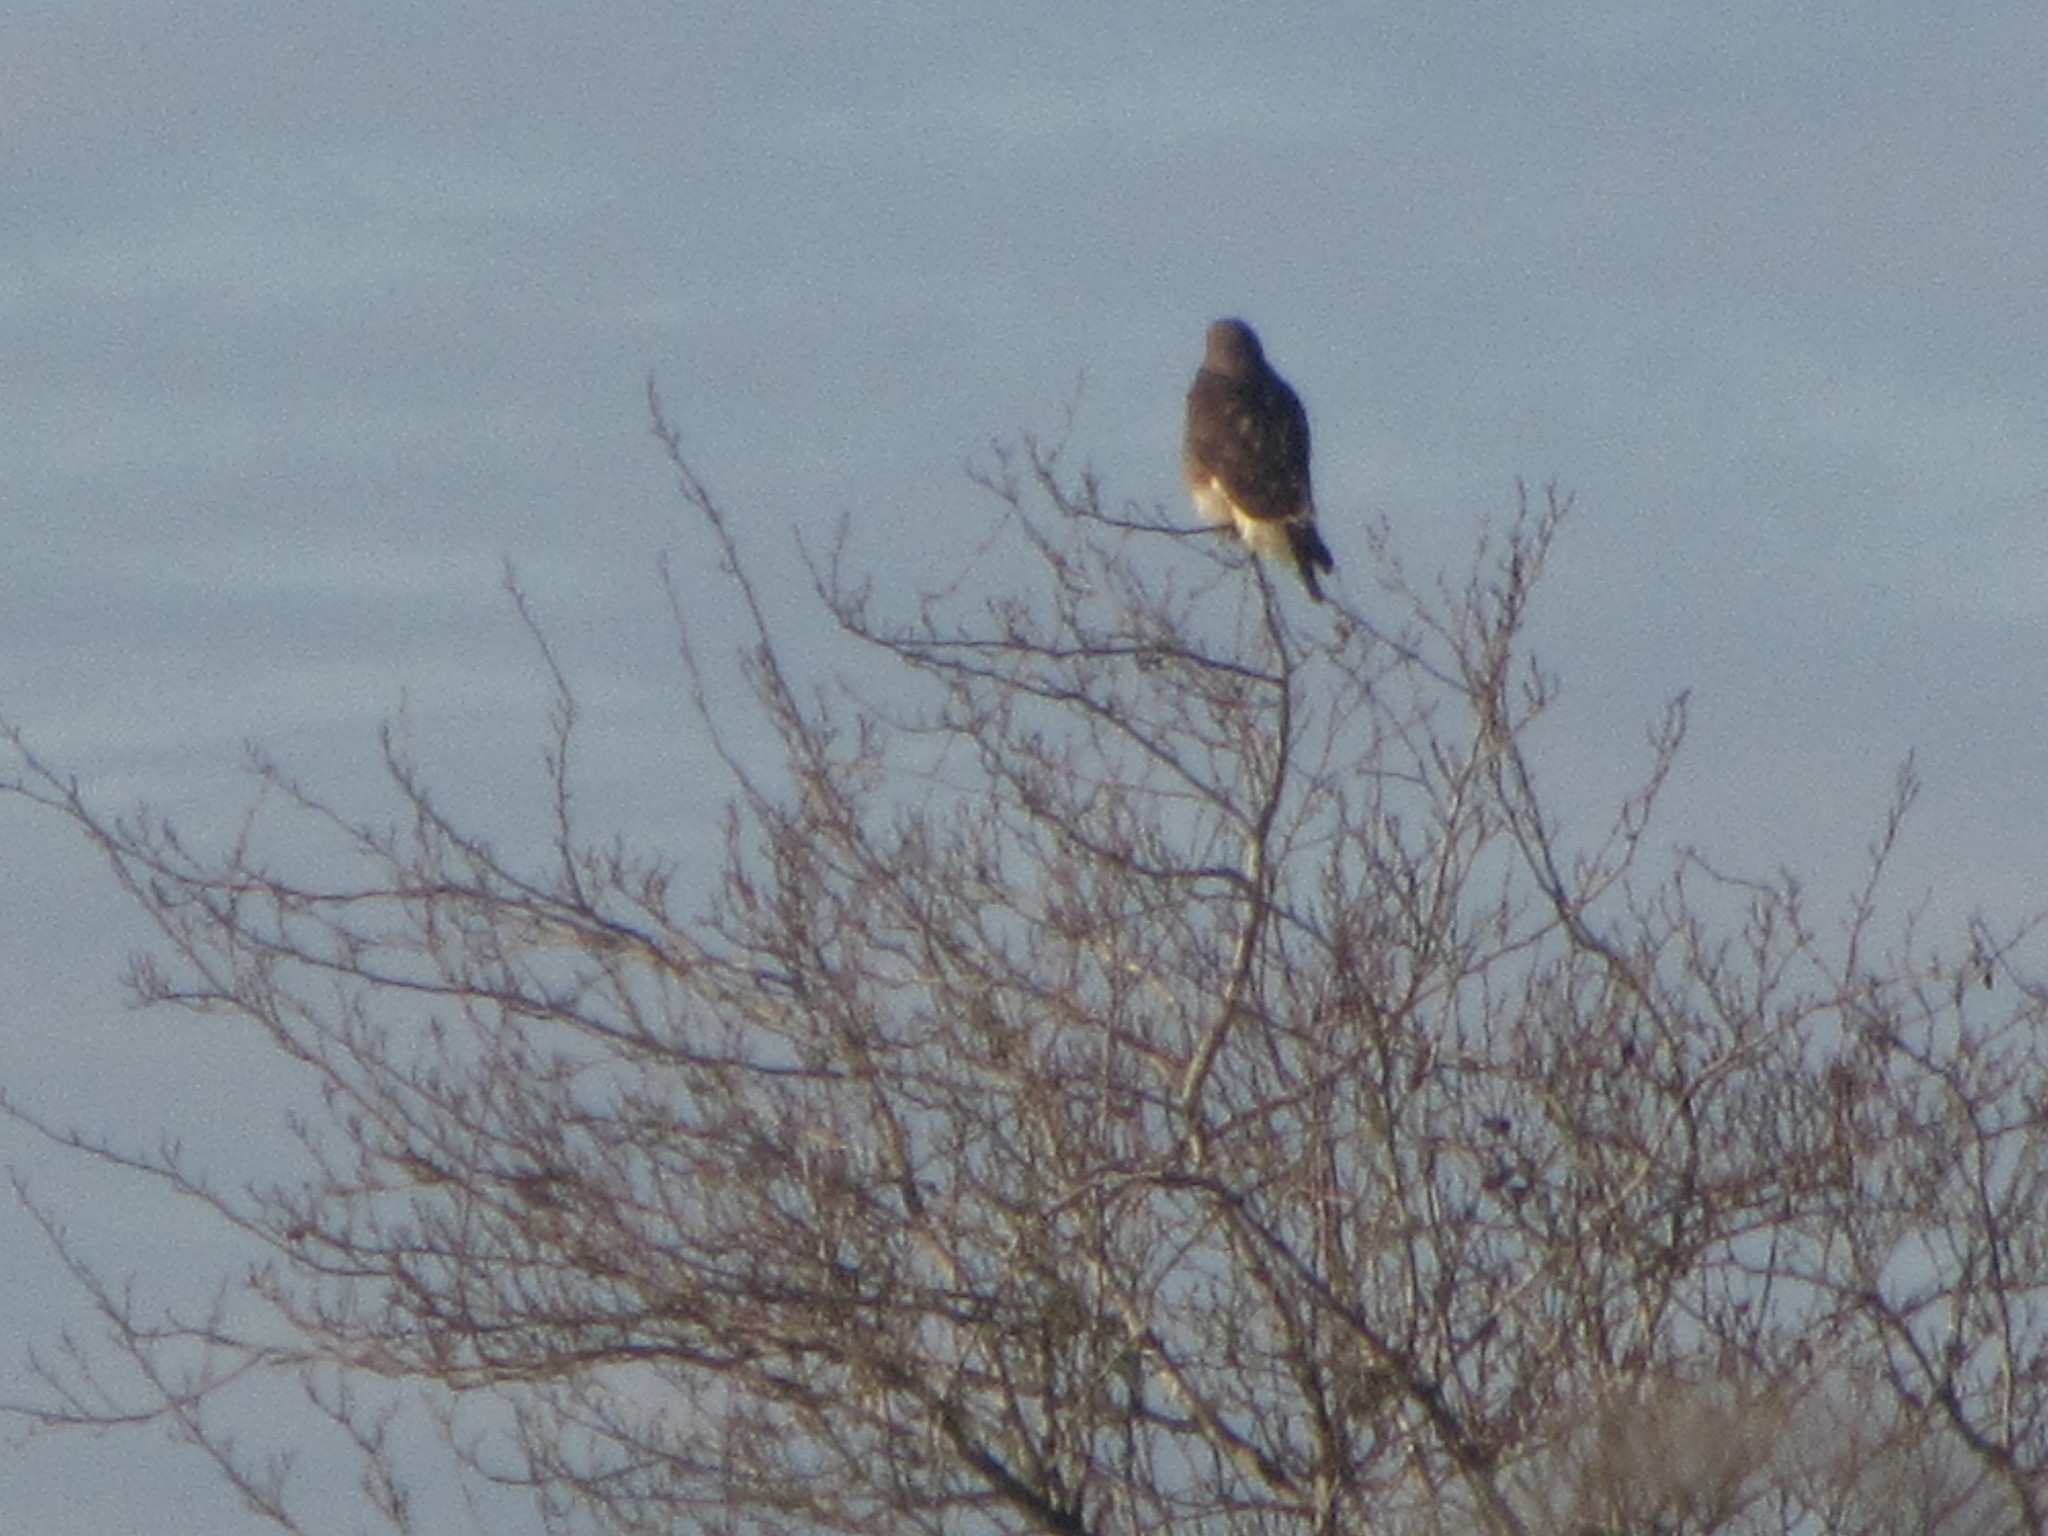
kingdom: Animalia
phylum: Chordata
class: Aves
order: Accipitriformes
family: Accipitridae
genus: Buteo
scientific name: Buteo
